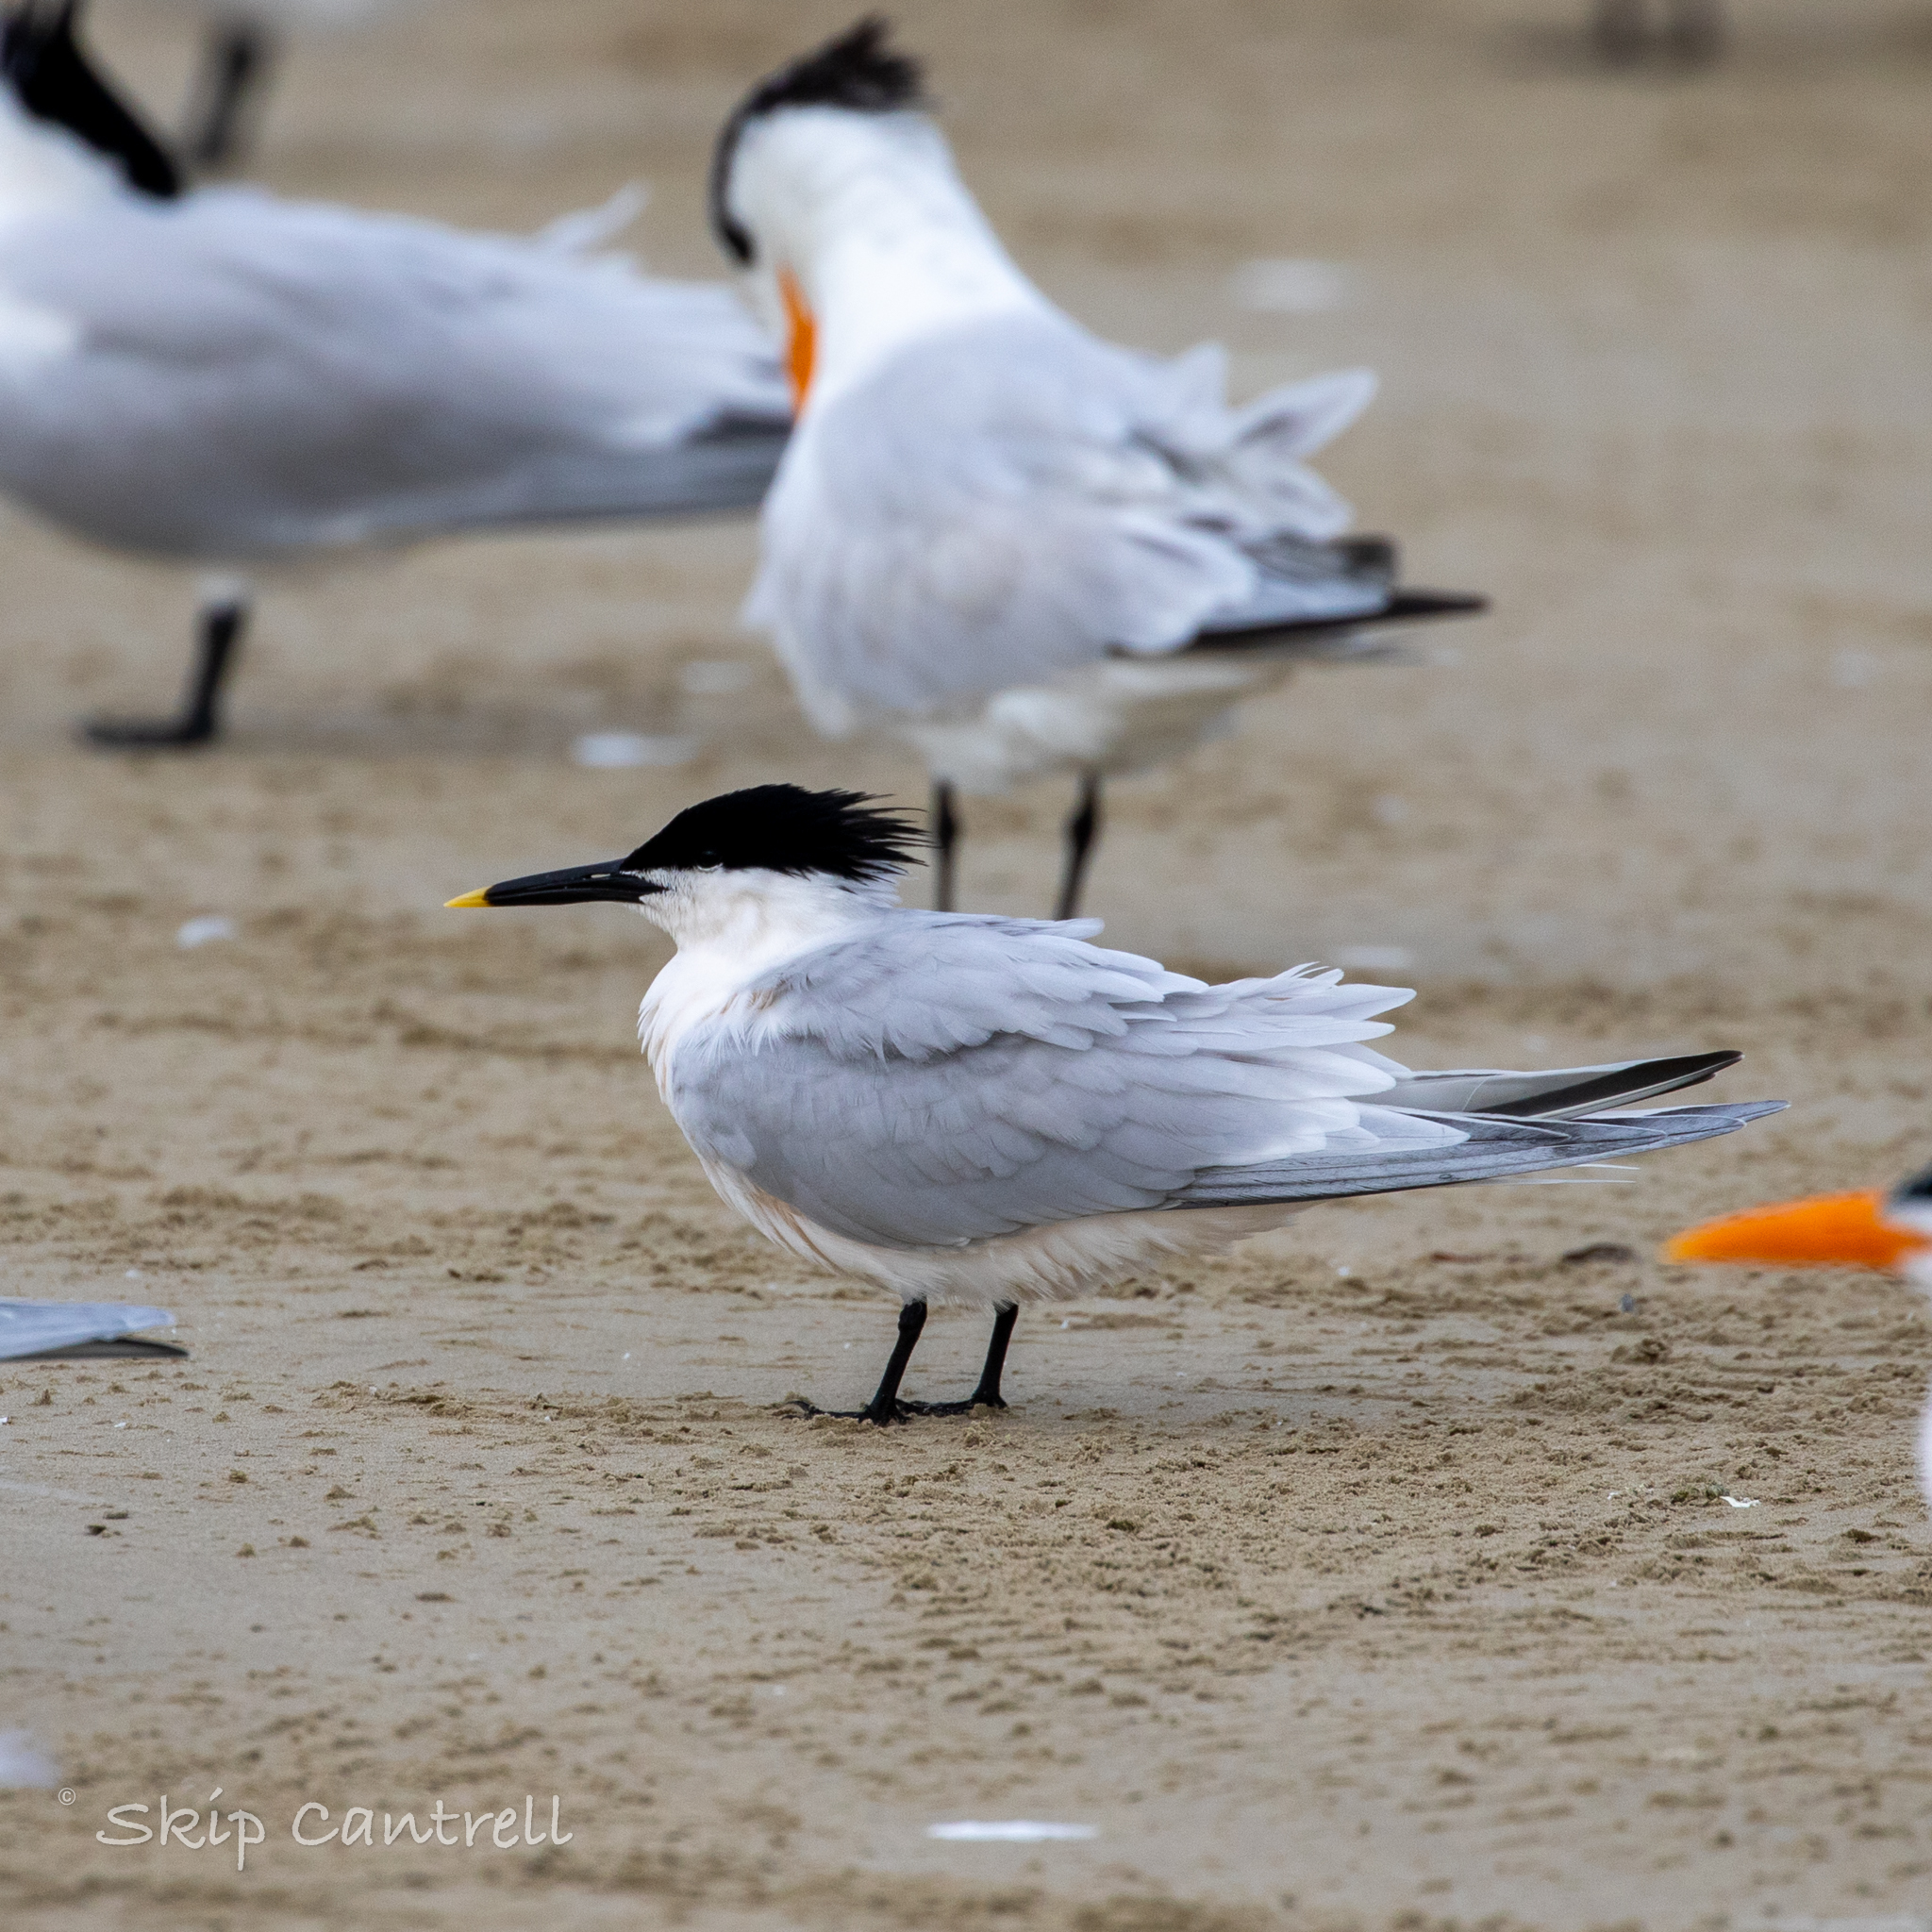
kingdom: Animalia
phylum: Chordata
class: Aves
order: Charadriiformes
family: Laridae
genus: Thalasseus
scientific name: Thalasseus sandvicensis
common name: Sandwich tern
